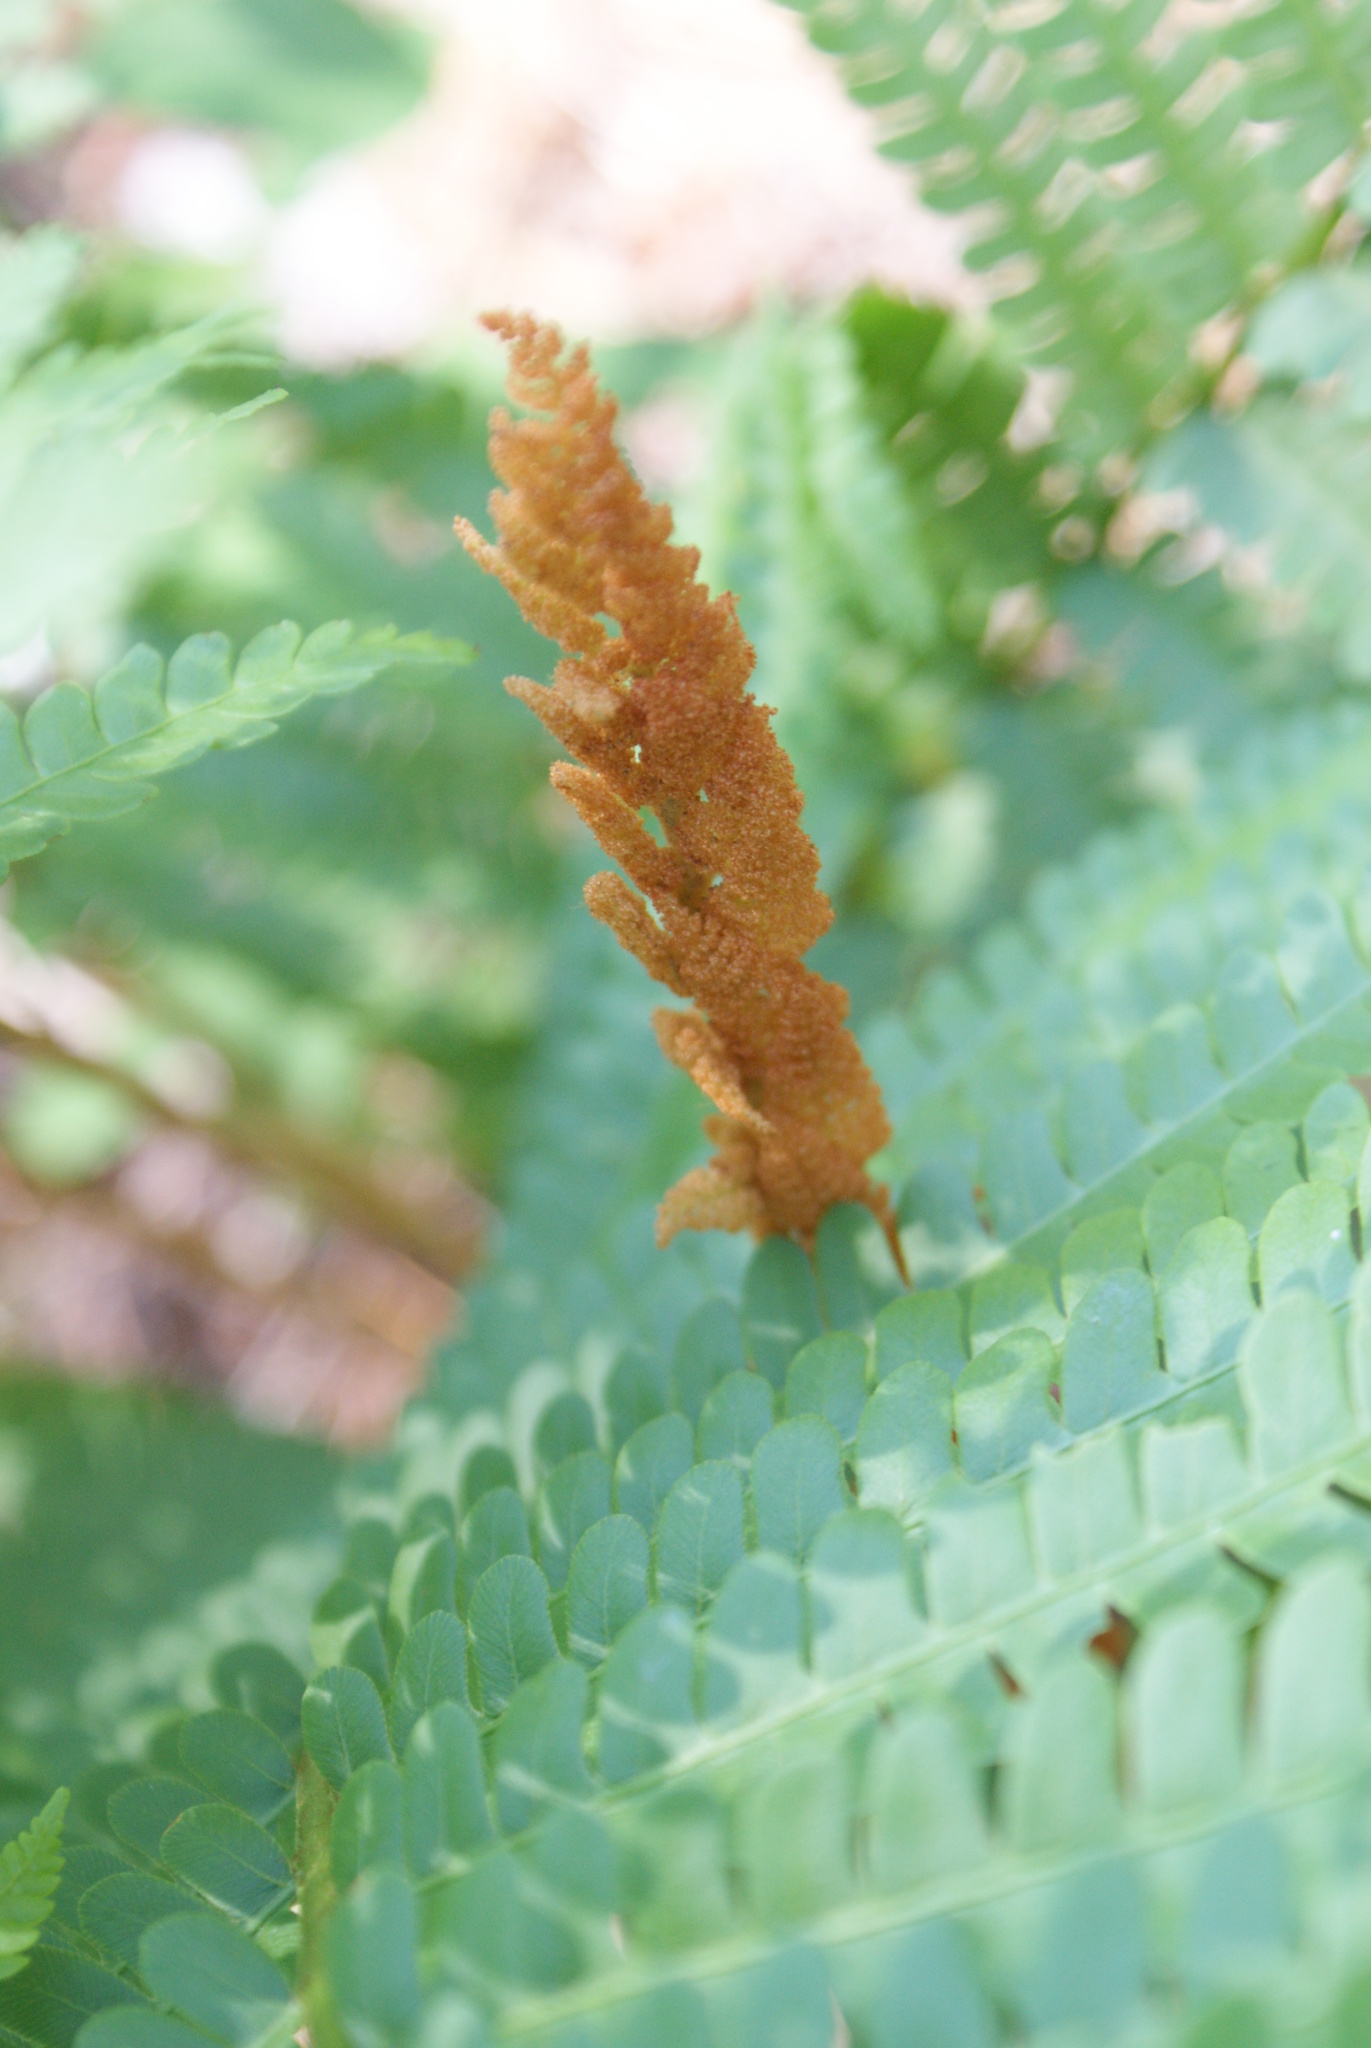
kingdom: Plantae
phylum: Tracheophyta
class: Polypodiopsida
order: Osmundales
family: Osmundaceae
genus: Osmundastrum
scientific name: Osmundastrum cinnamomeum
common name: Cinnamon fern
